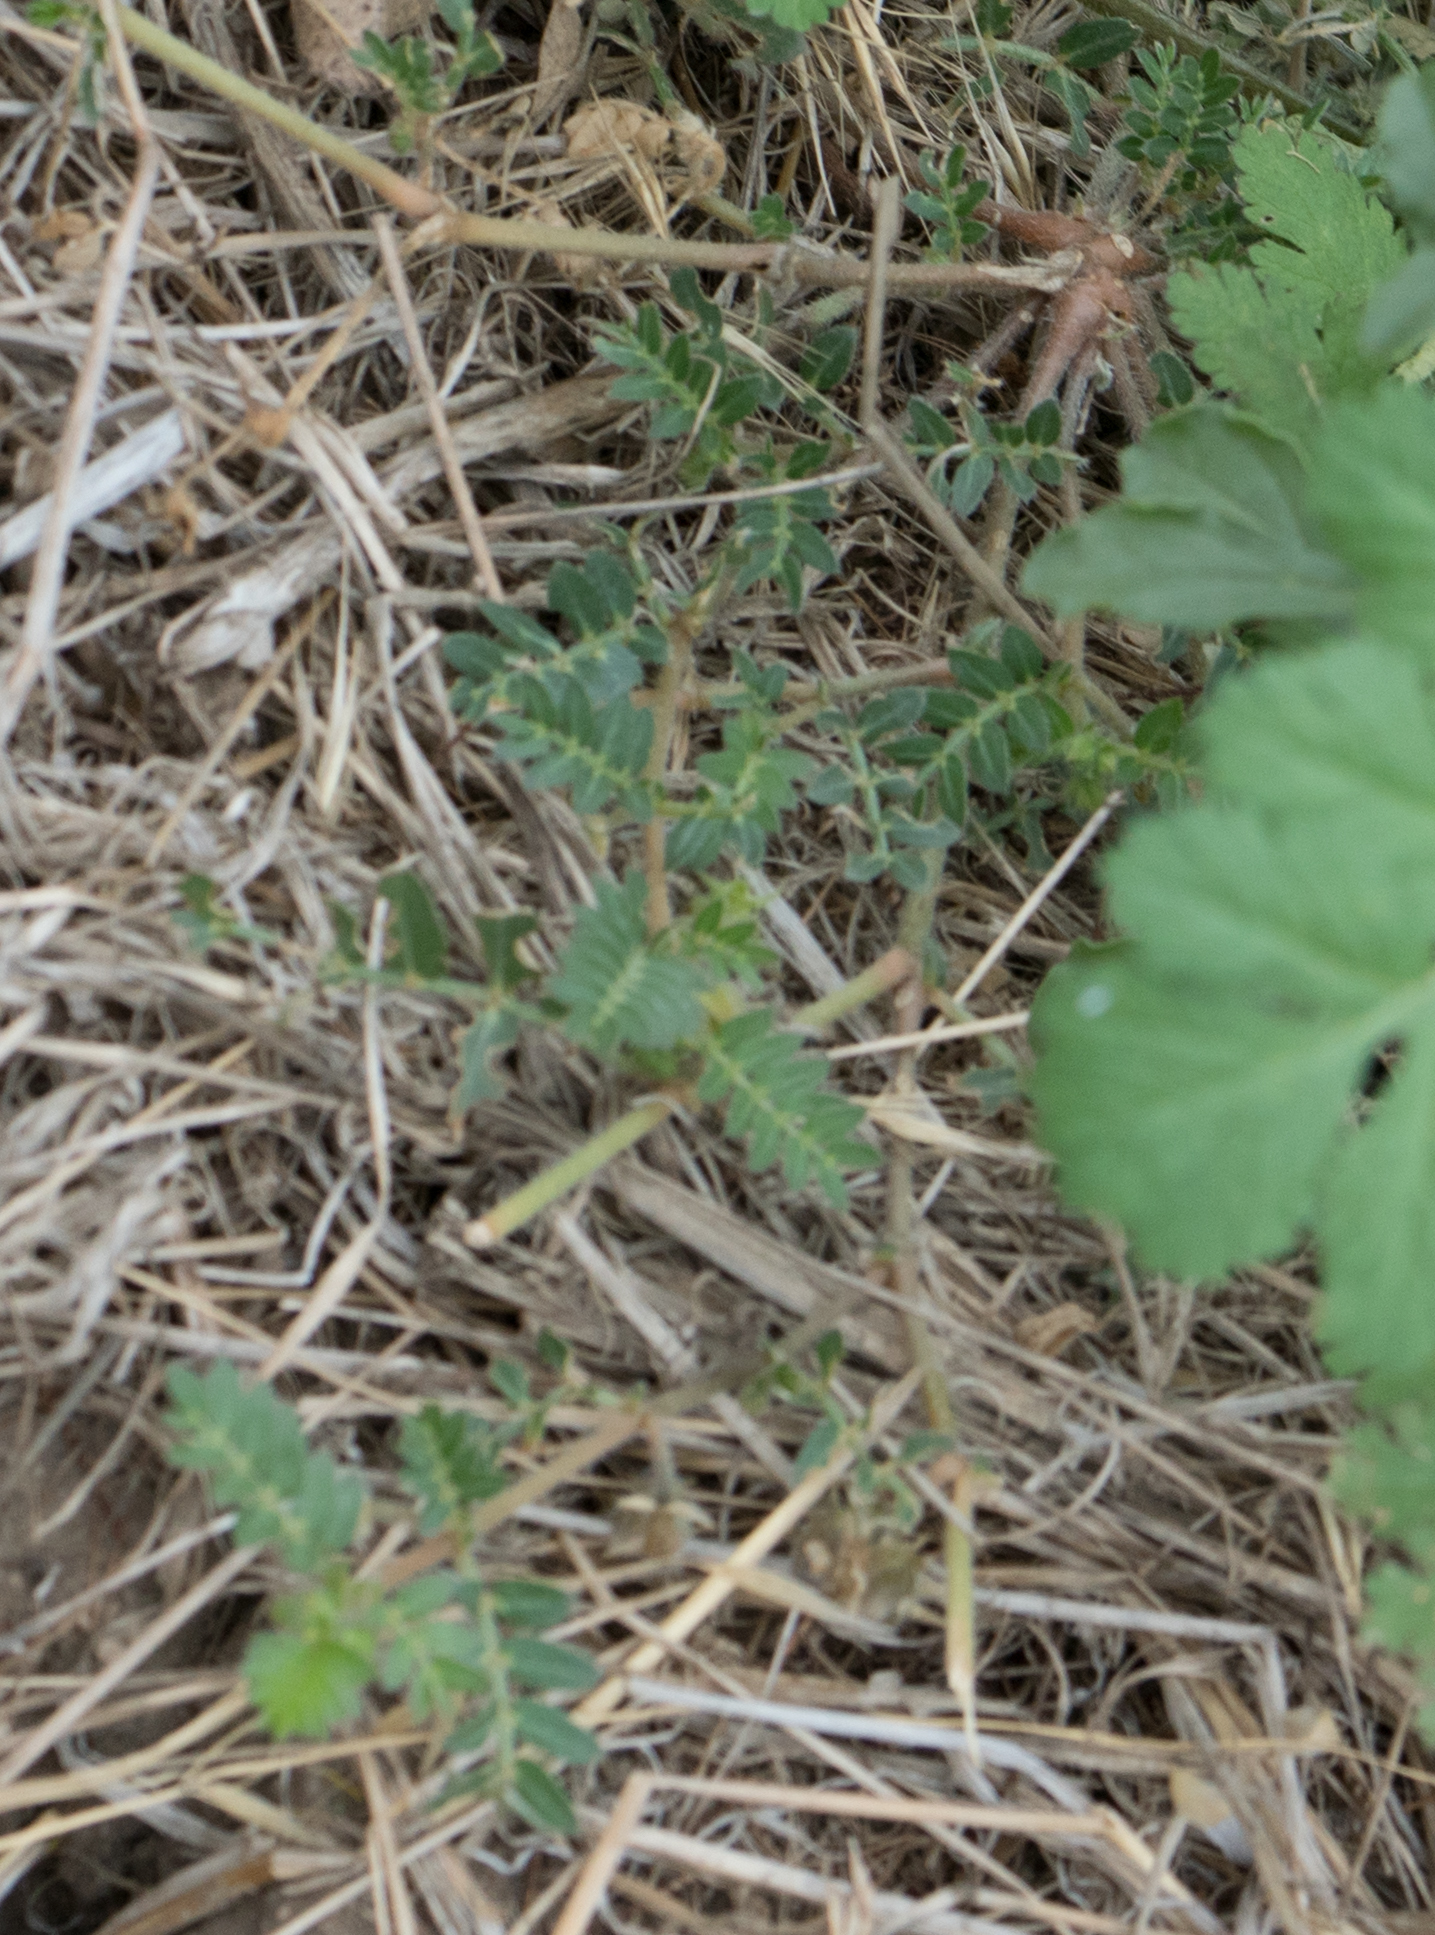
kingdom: Plantae
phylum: Tracheophyta
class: Magnoliopsida
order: Zygophyllales
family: Zygophyllaceae
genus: Tribulus
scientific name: Tribulus terrestris
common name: Puncturevine
